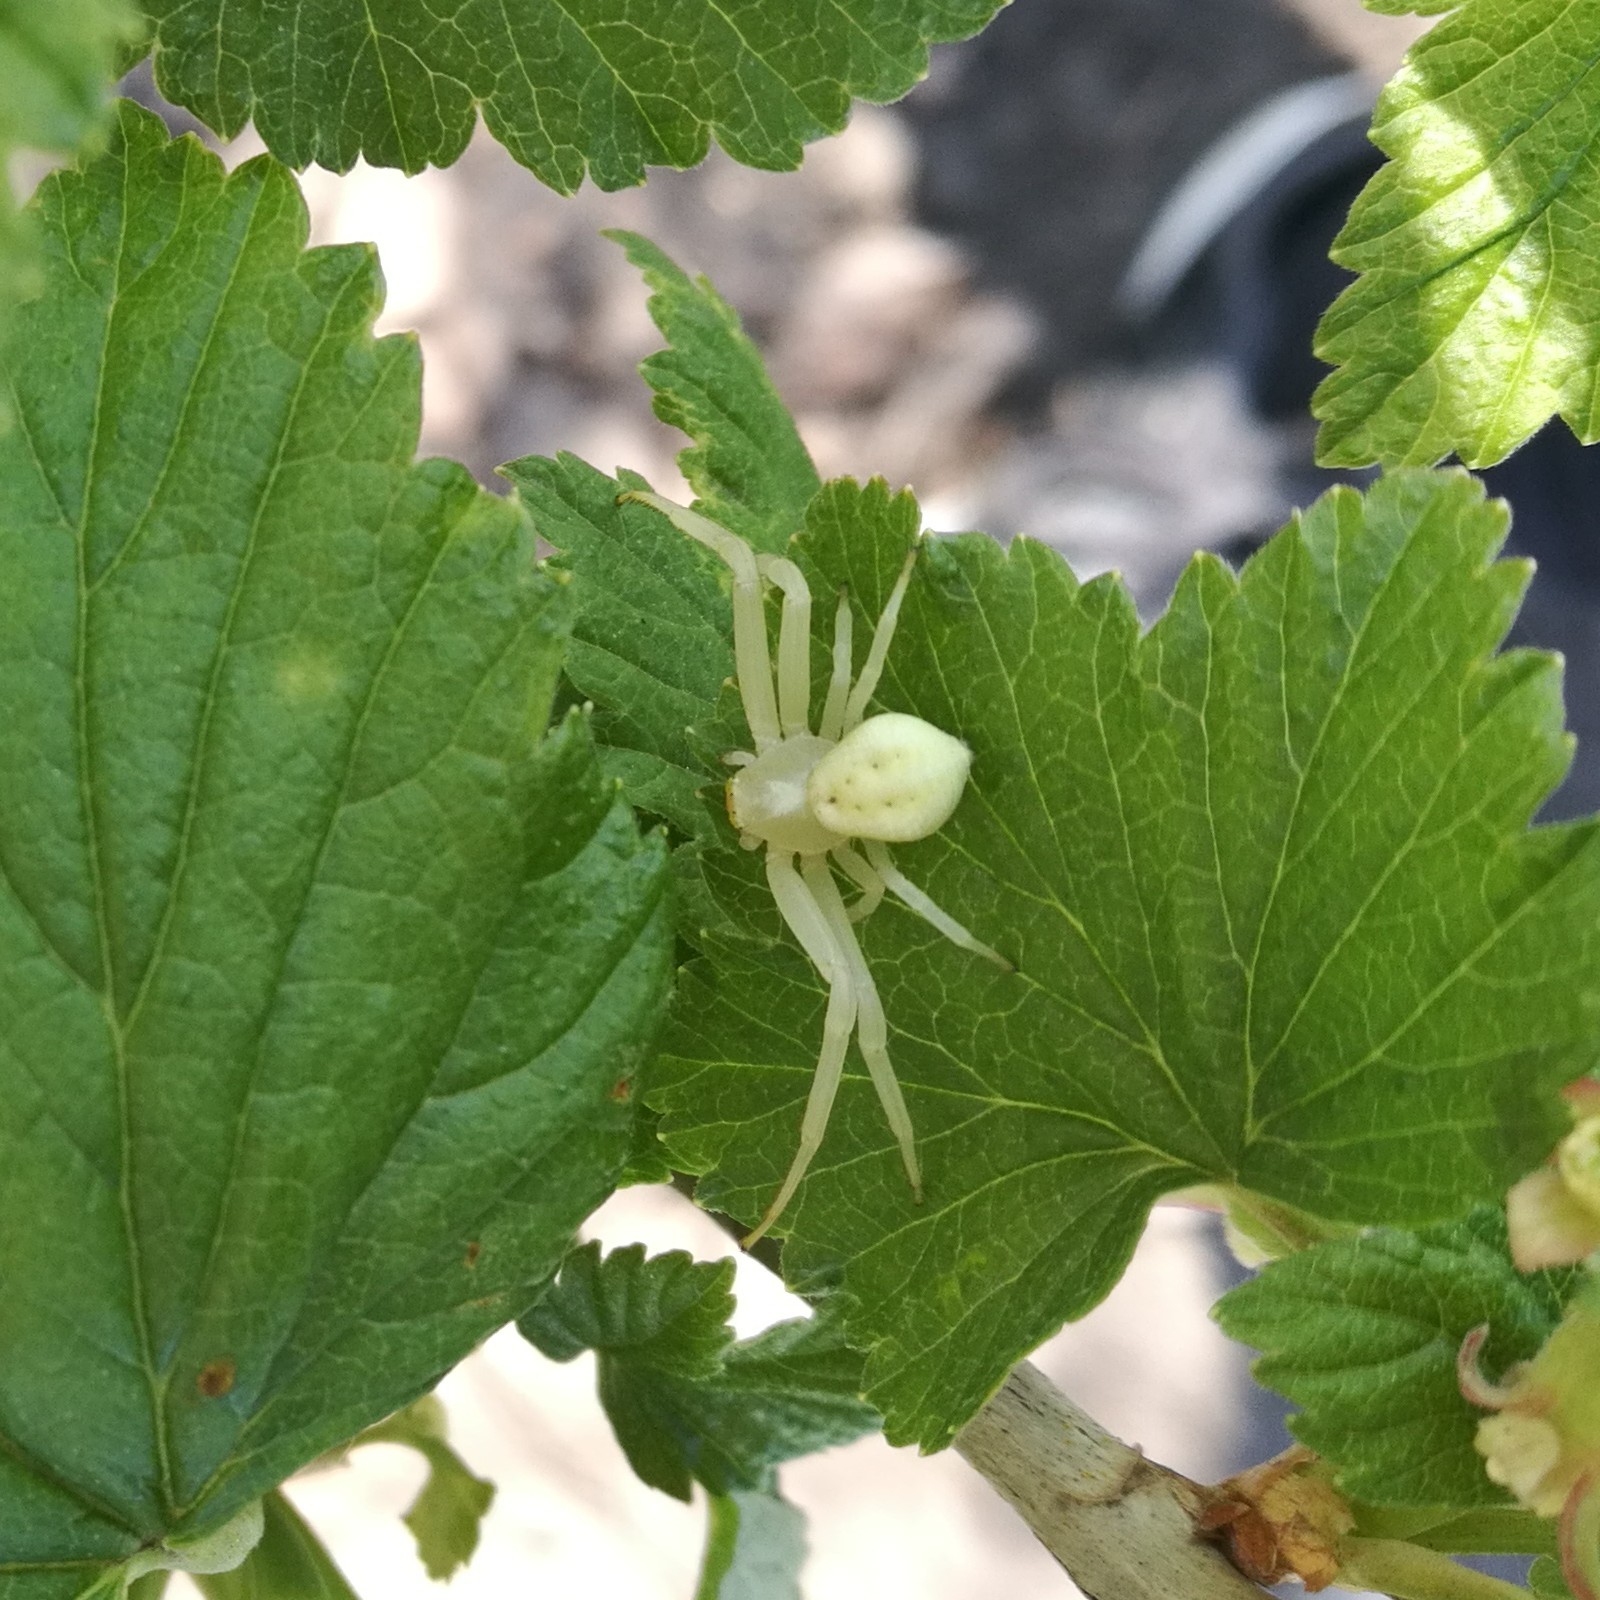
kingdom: Animalia
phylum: Arthropoda
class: Arachnida
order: Araneae
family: Thomisidae
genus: Misumena
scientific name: Misumena vatia
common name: Goldenrod crab spider
